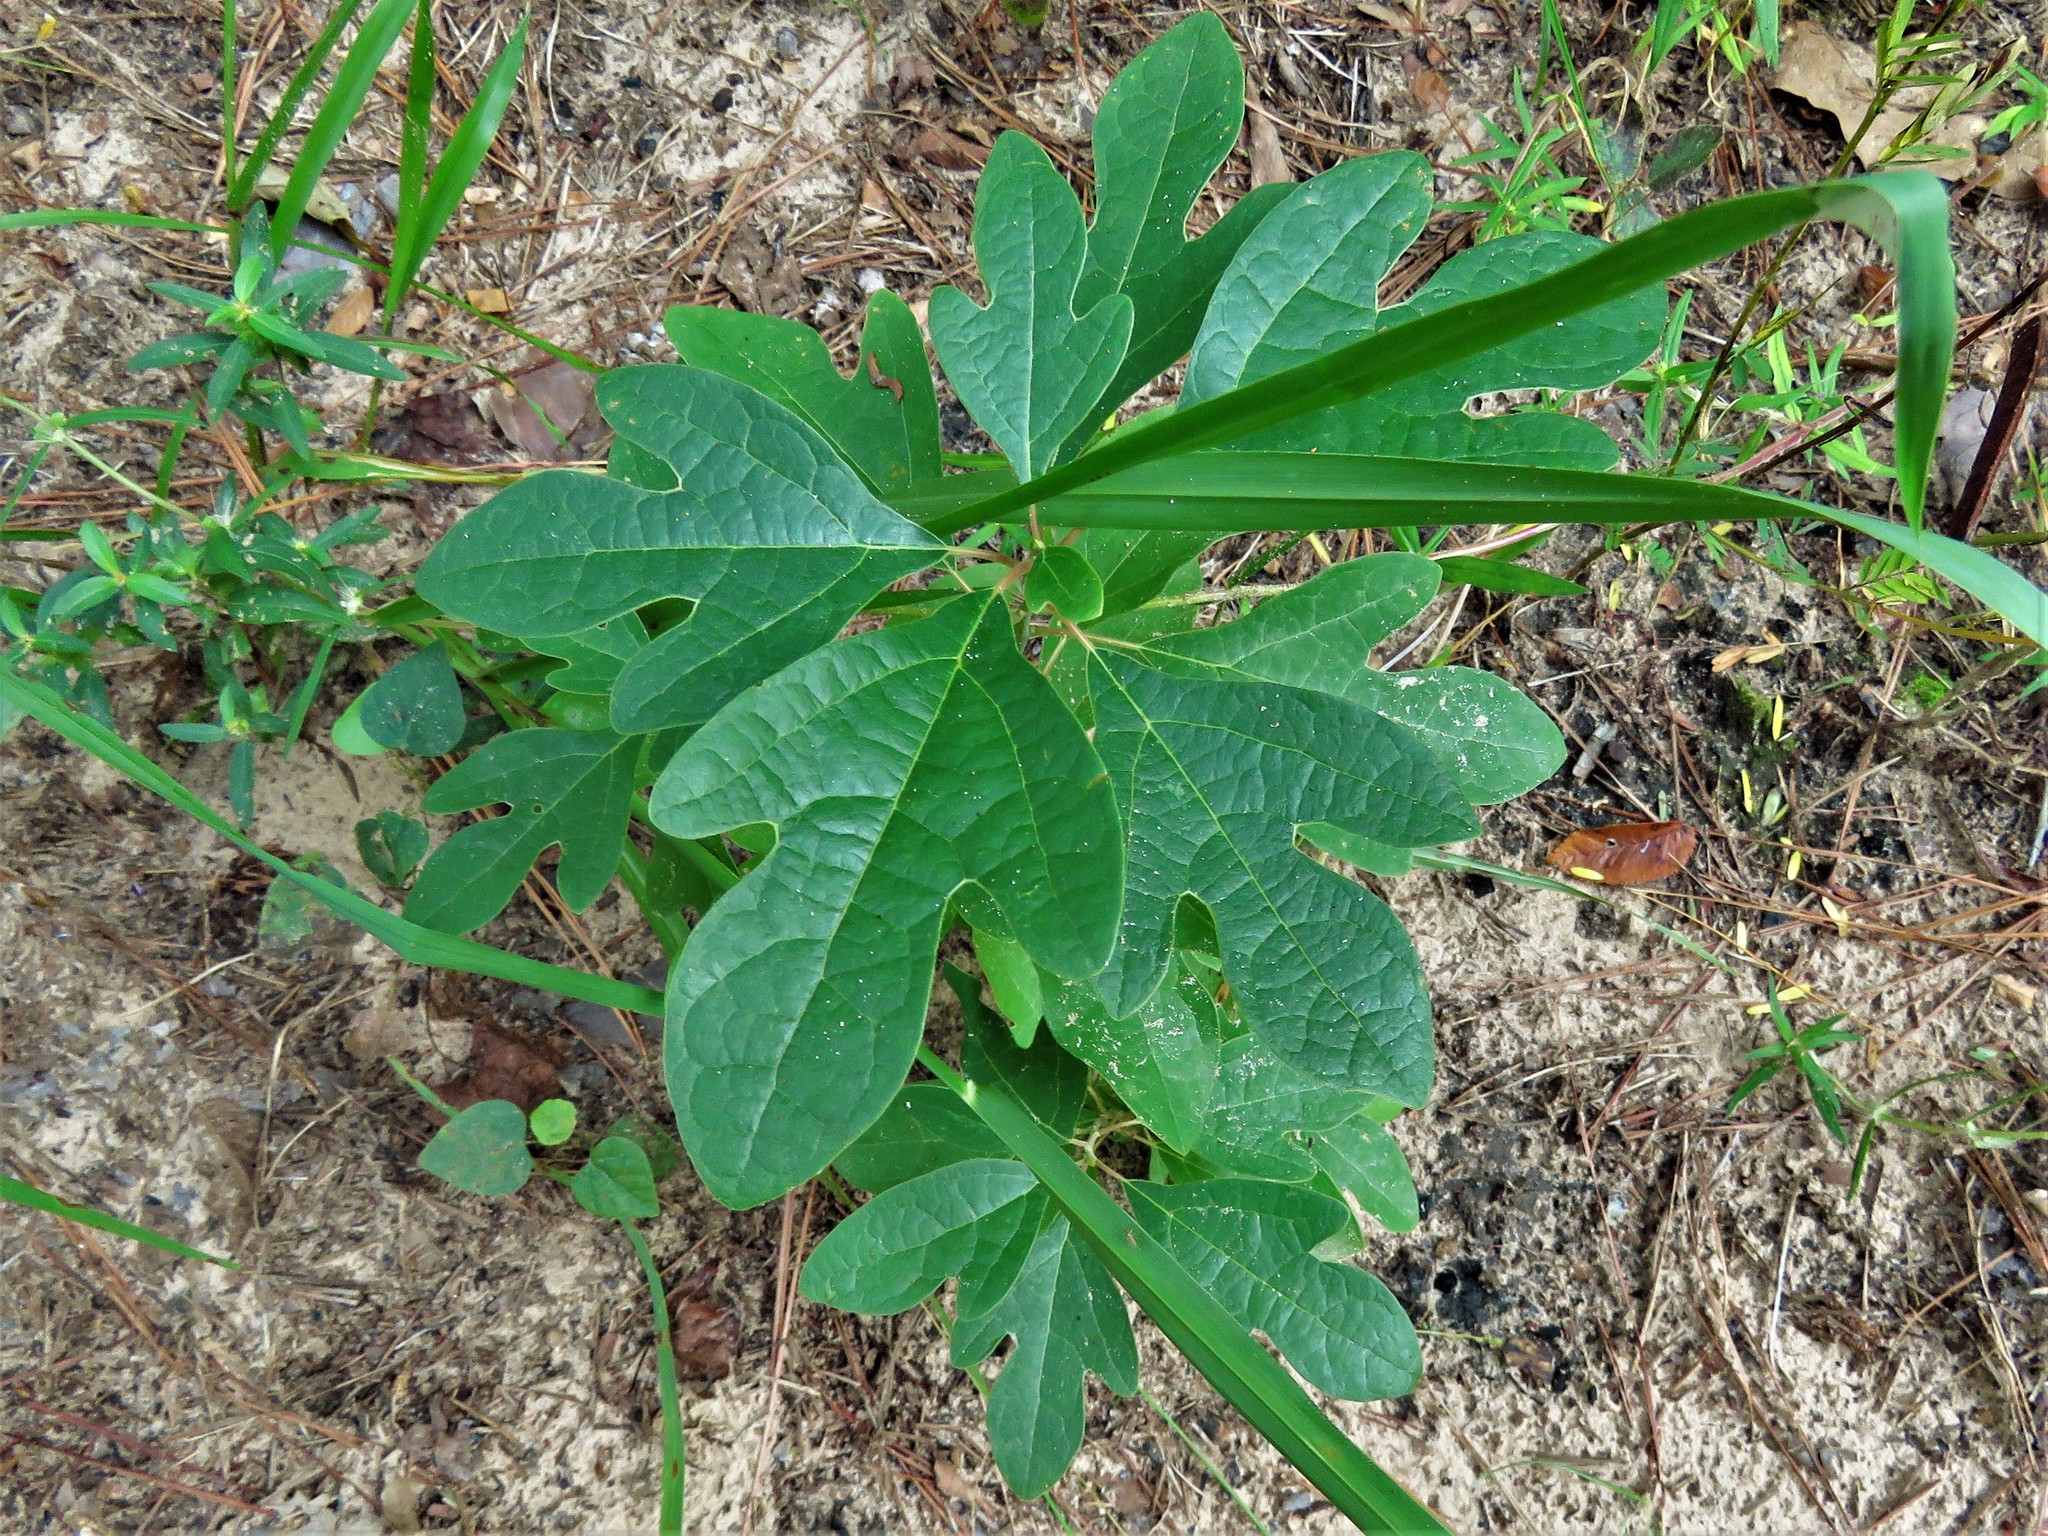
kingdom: Plantae
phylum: Tracheophyta
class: Magnoliopsida
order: Laurales
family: Lauraceae
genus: Sassafras
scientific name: Sassafras albidum
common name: Sassafras
